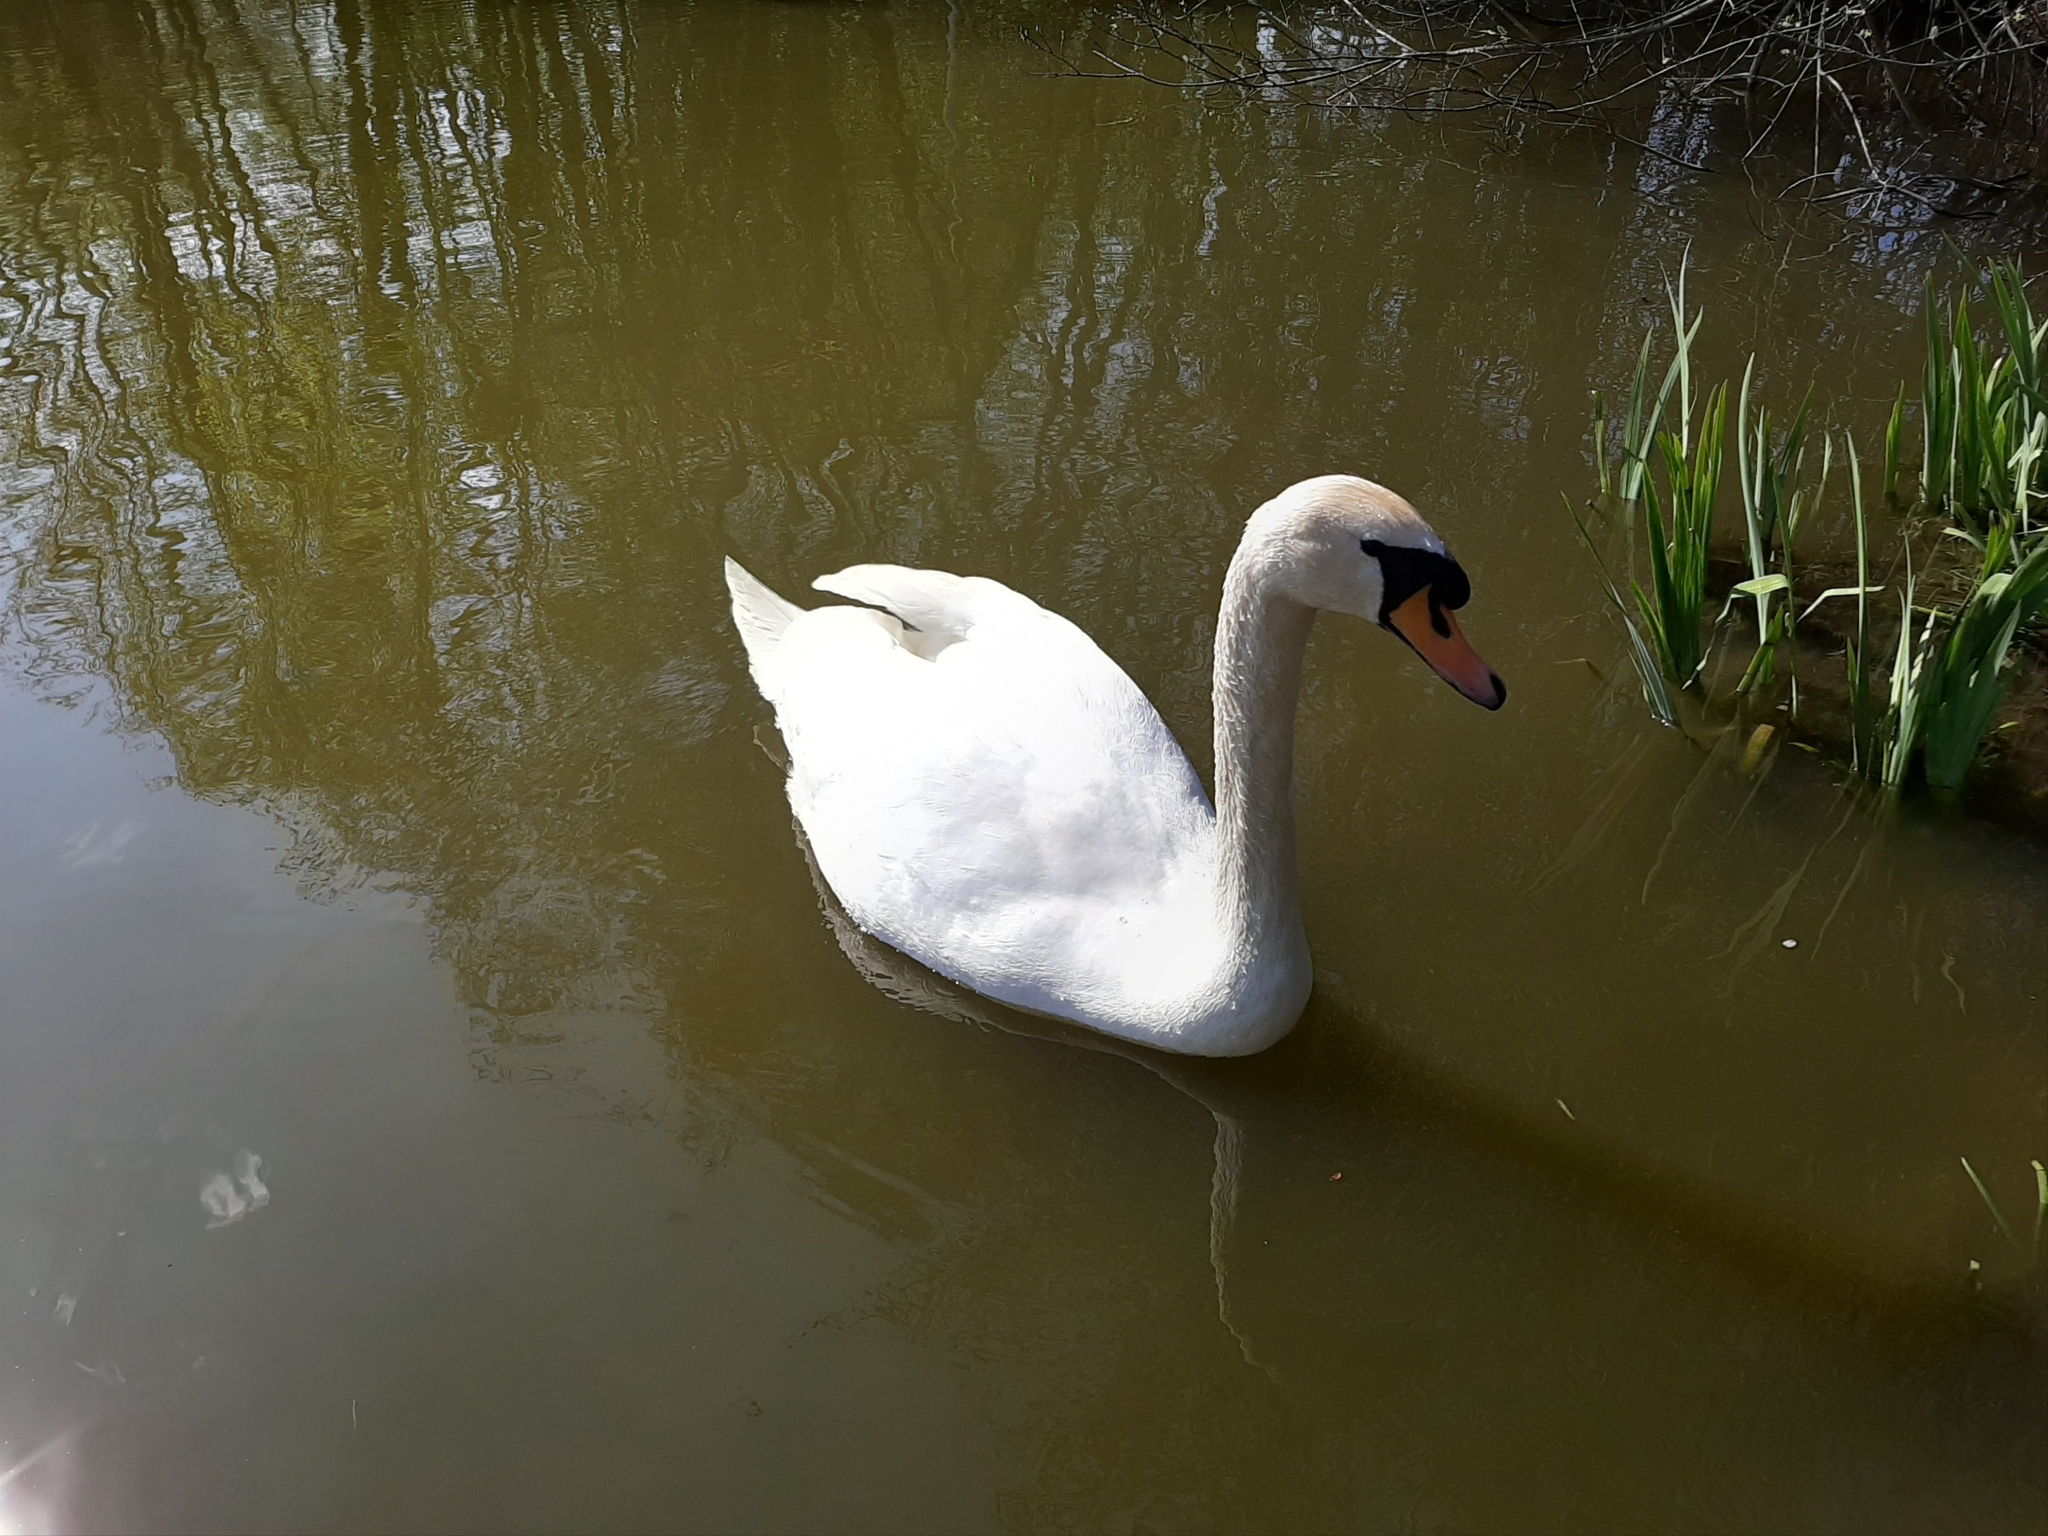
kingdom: Animalia
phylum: Chordata
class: Aves
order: Anseriformes
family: Anatidae
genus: Cygnus
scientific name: Cygnus olor
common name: Mute swan
